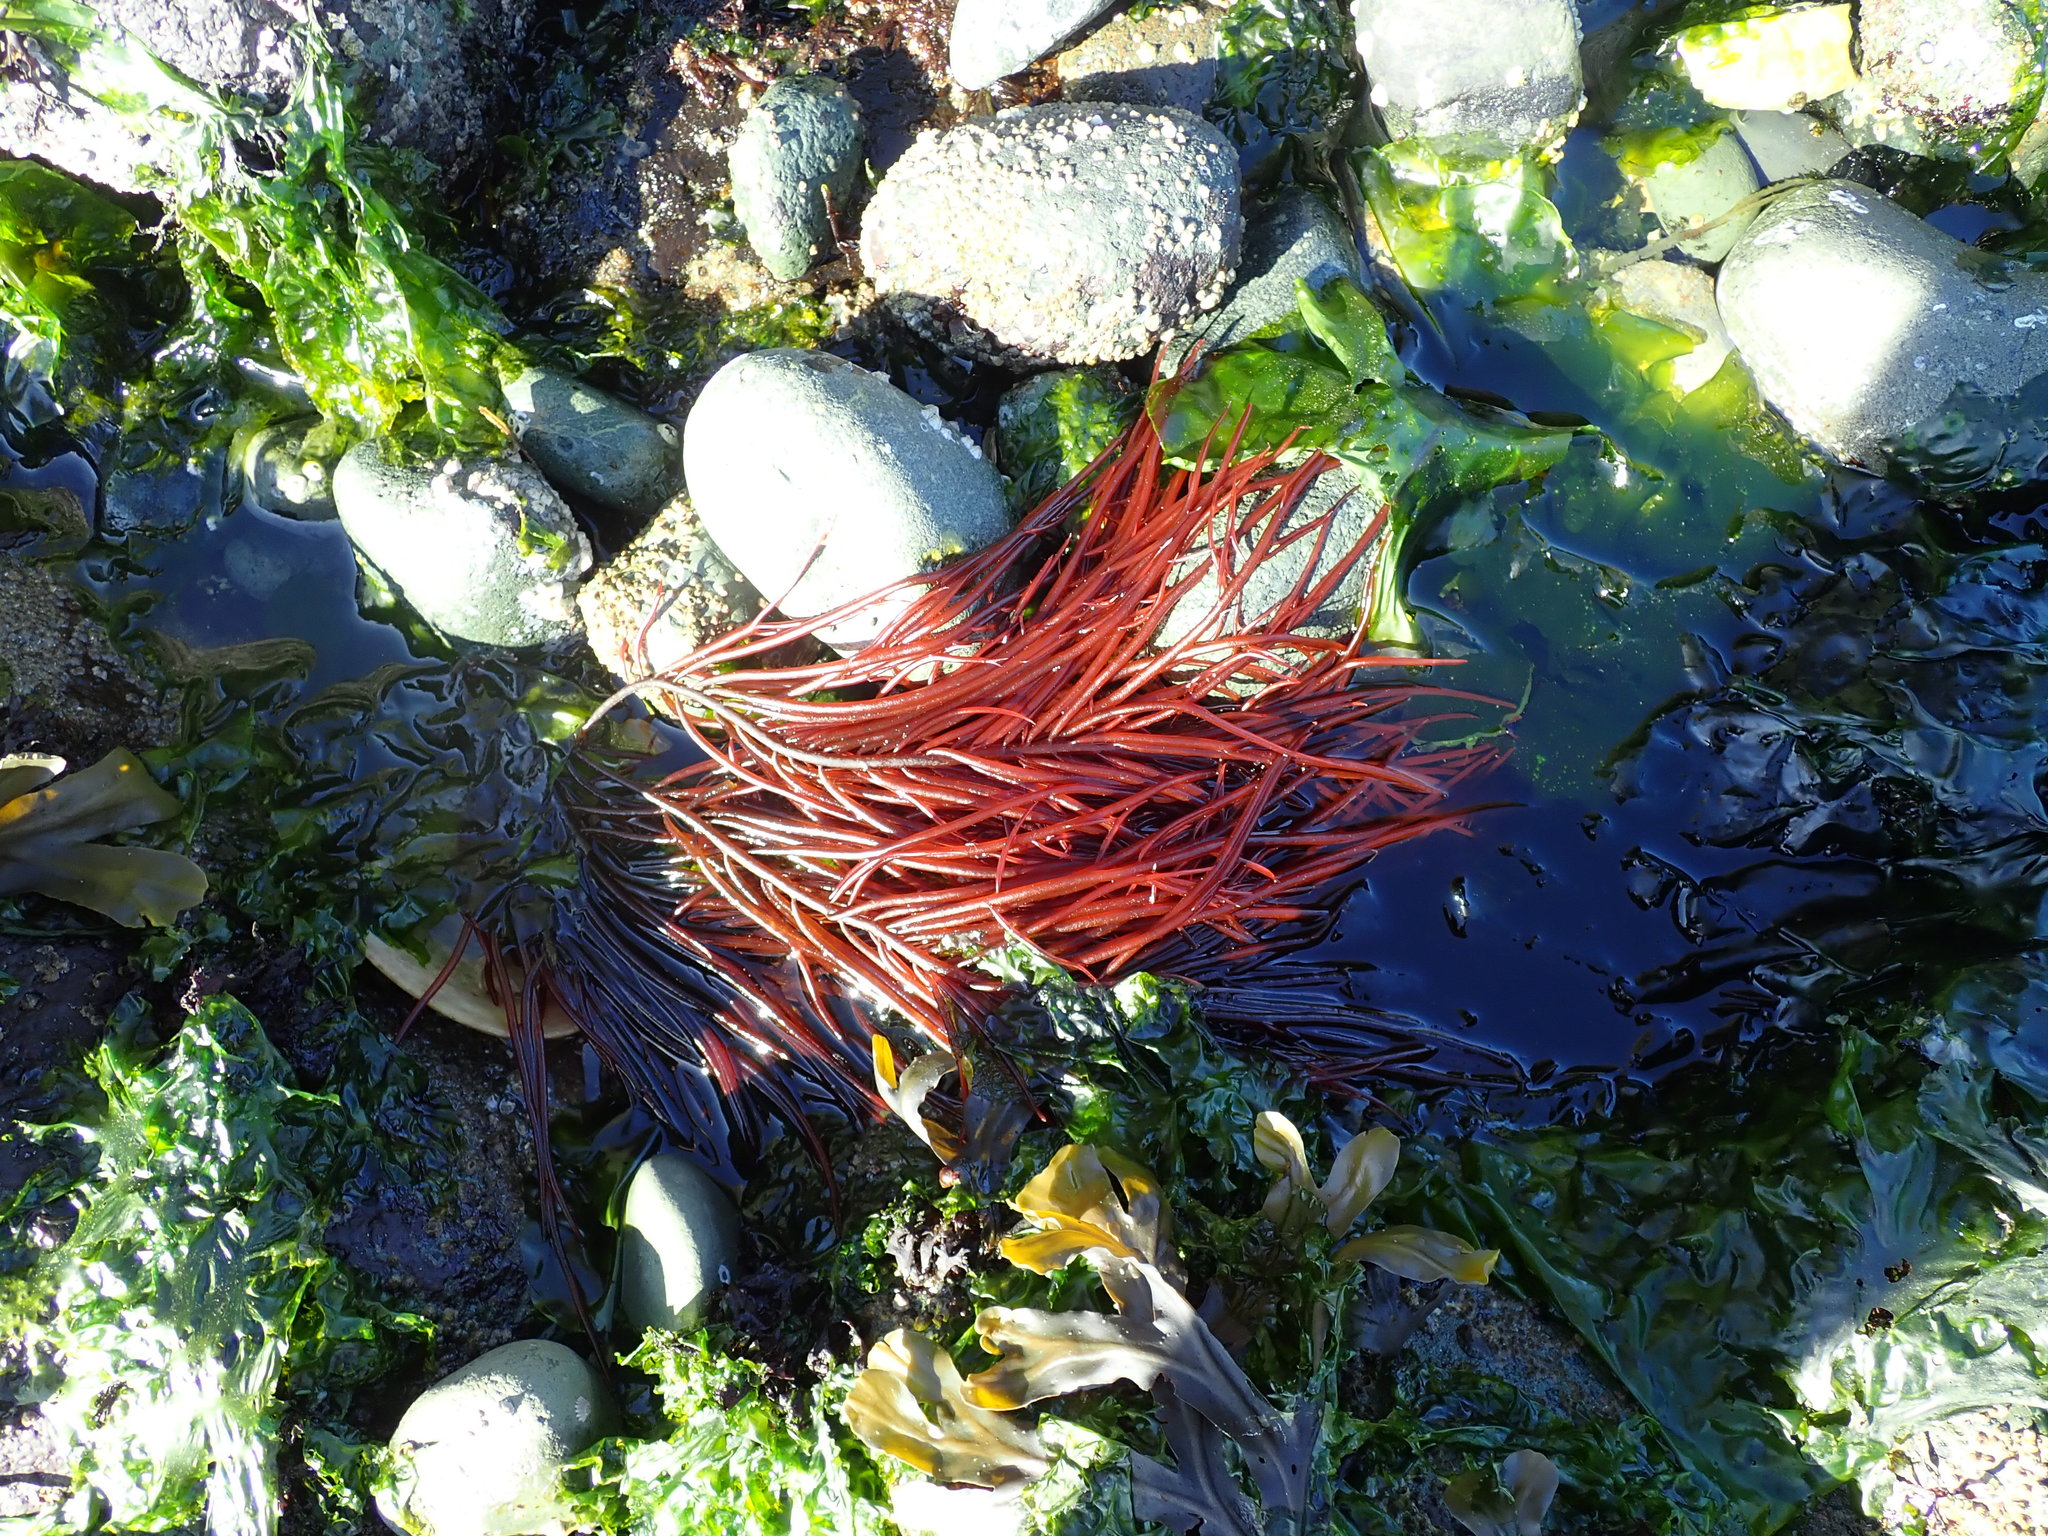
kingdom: Plantae
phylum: Rhodophyta
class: Florideophyceae
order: Gigartinales
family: Solieriaceae
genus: Sarcodiotheca
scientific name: Sarcodiotheca gaudichaudii
